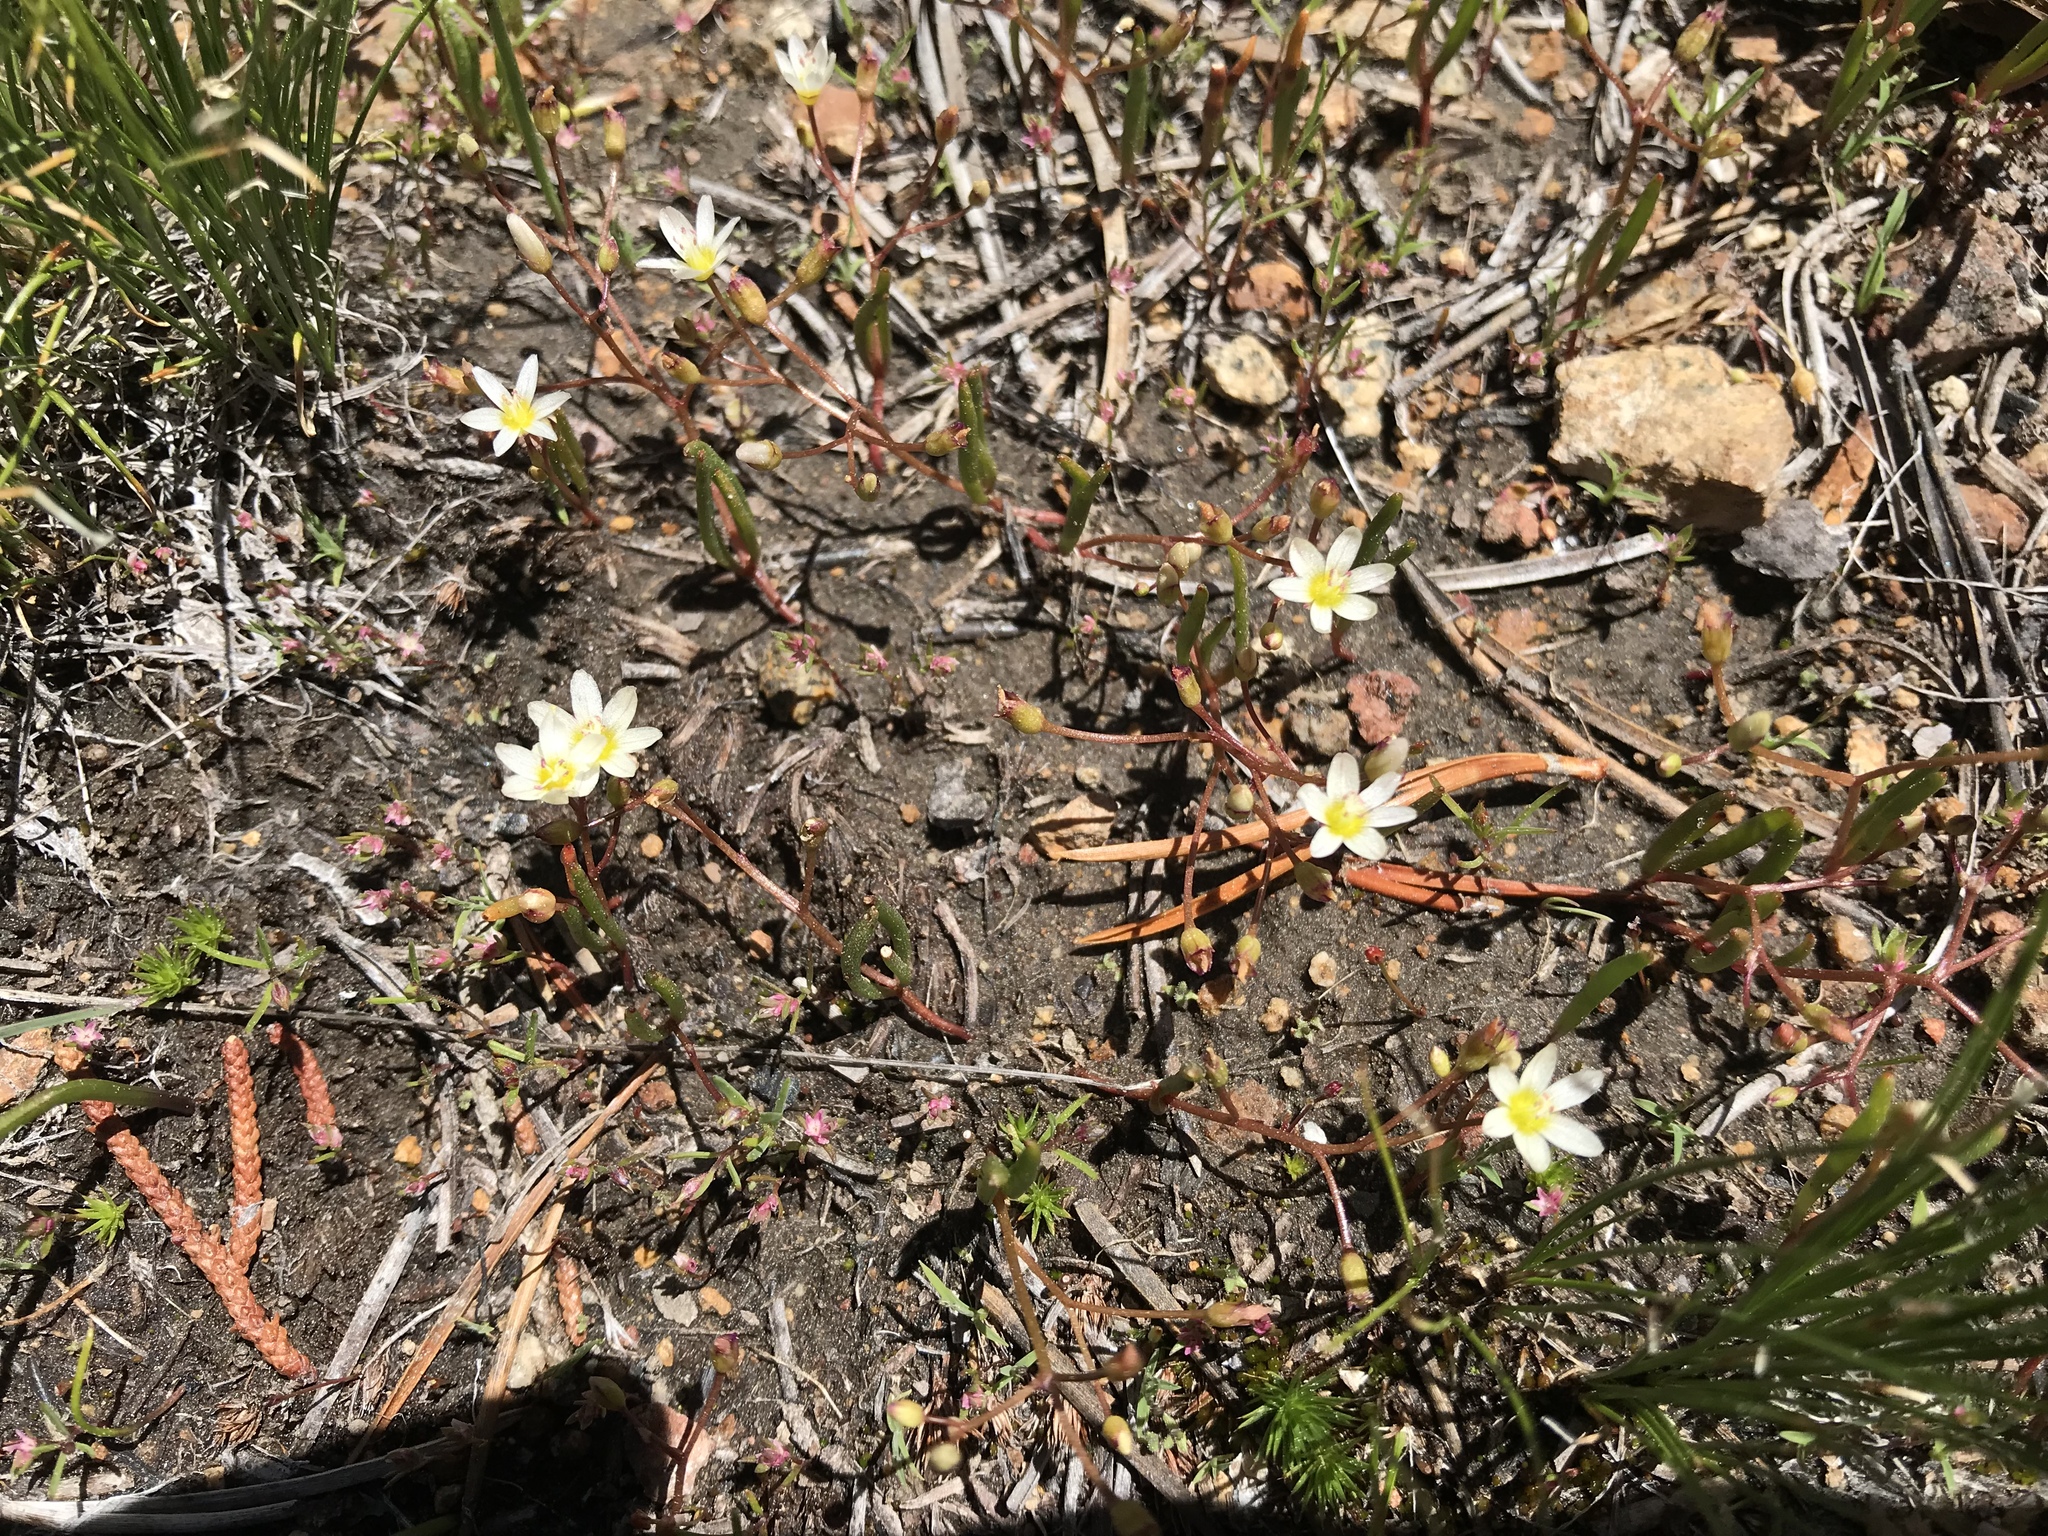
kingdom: Plantae
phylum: Tracheophyta
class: Magnoliopsida
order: Caryophyllales
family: Montiaceae
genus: Lewisia
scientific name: Lewisia triphylla
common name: Three-leaved bitterroot
